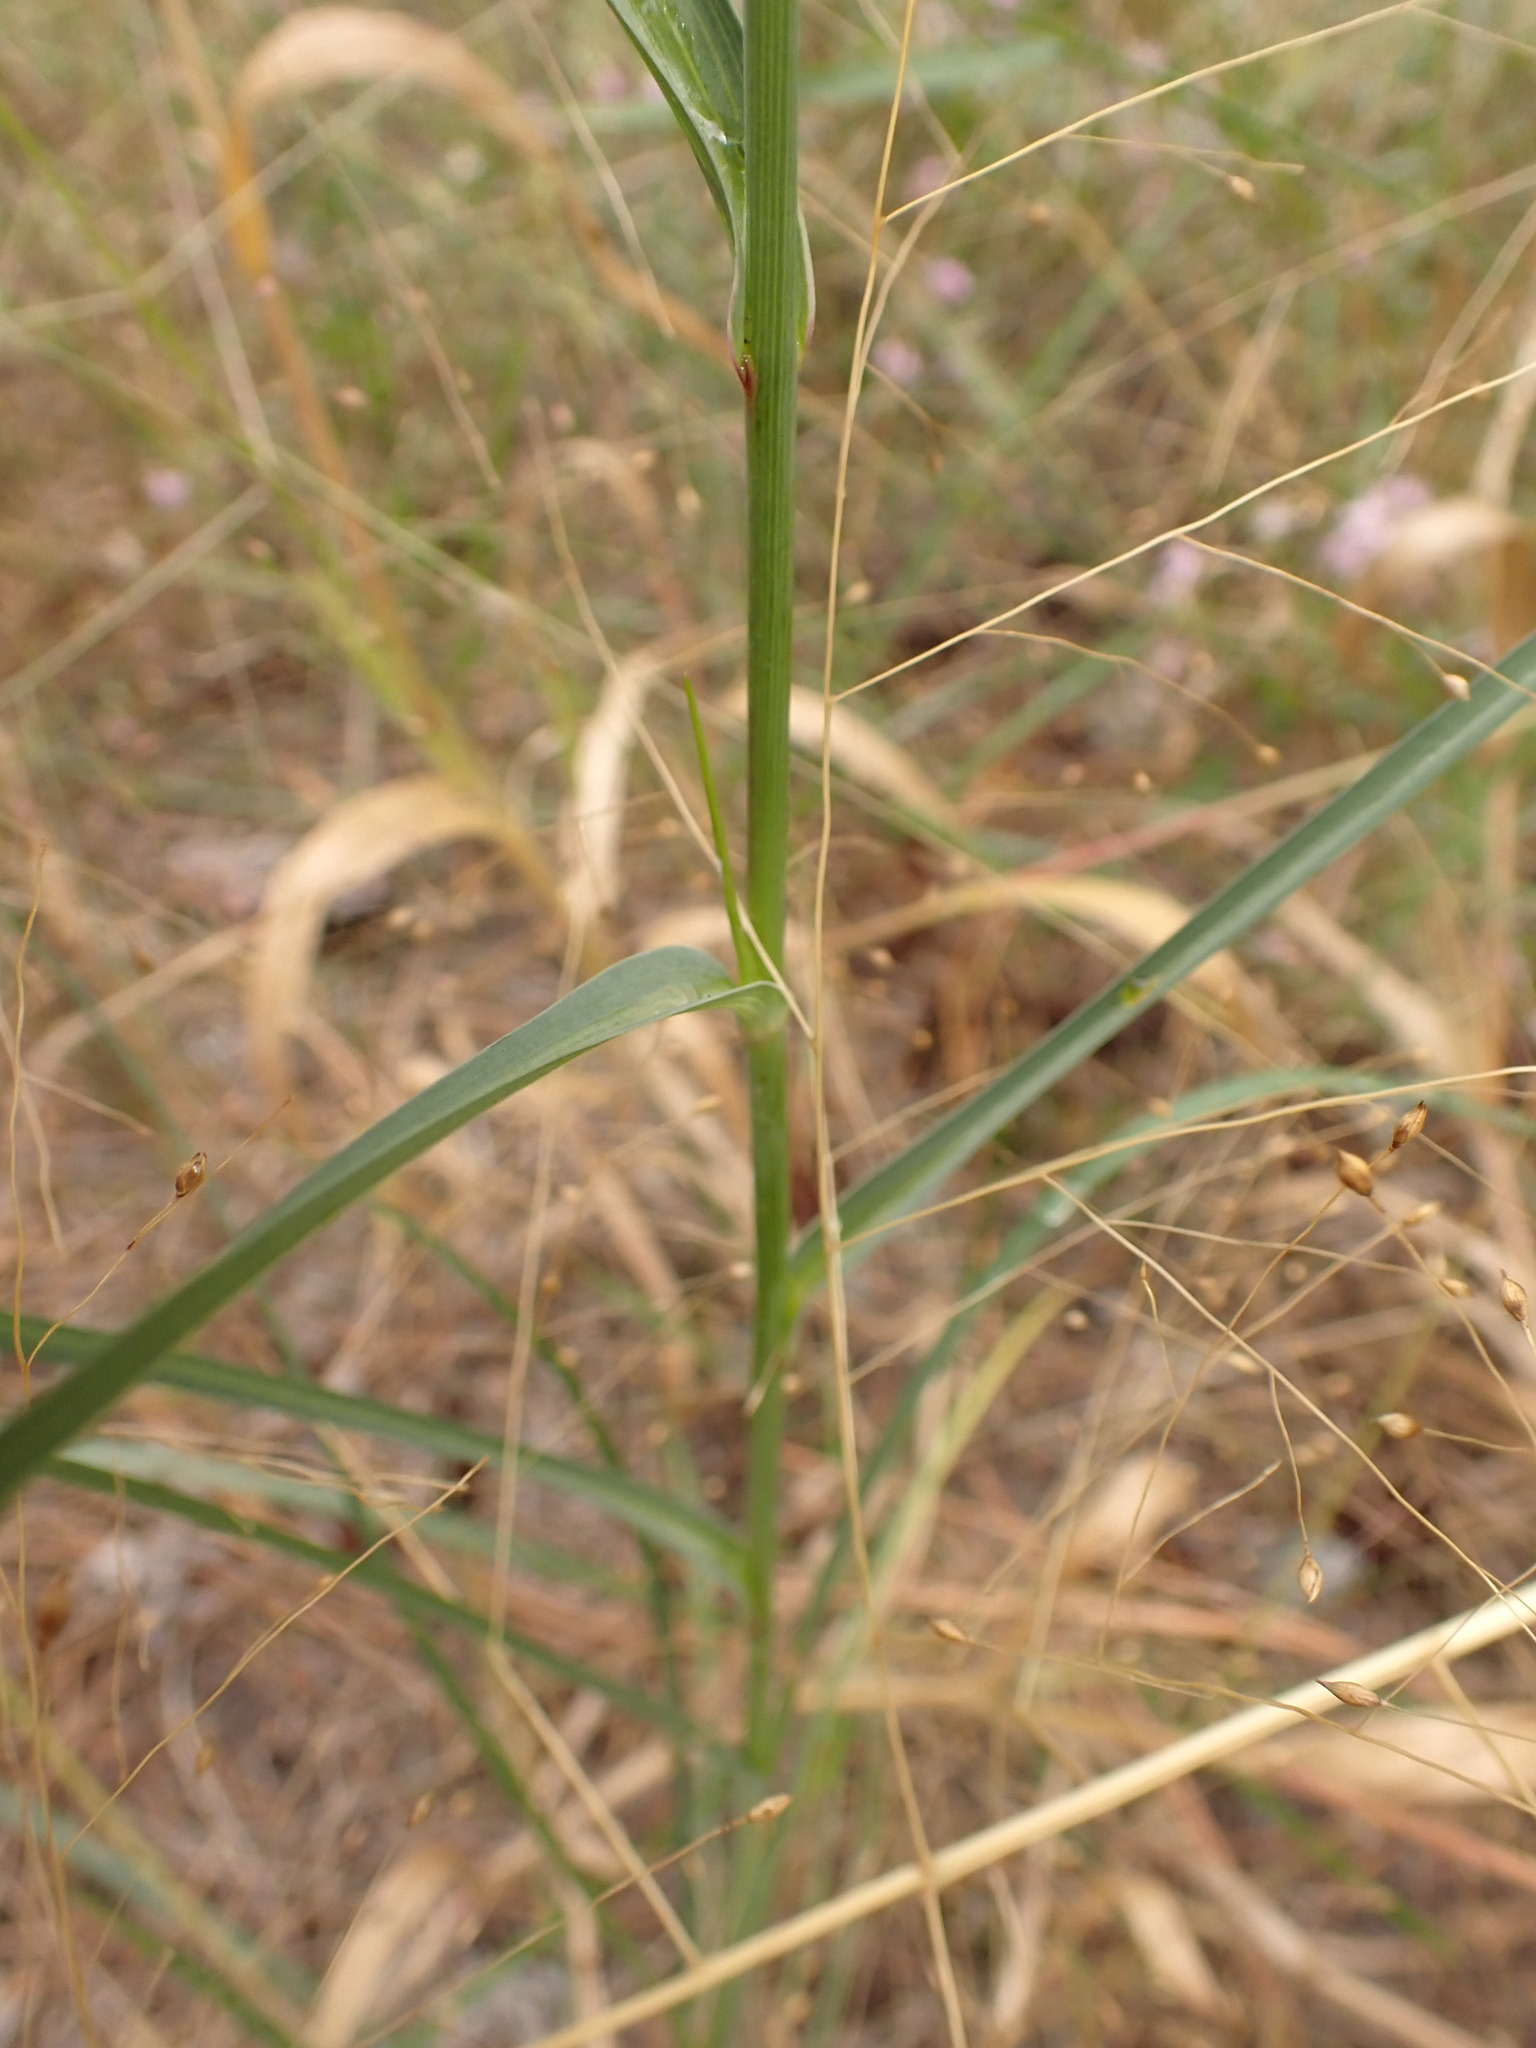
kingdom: Plantae
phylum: Tracheophyta
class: Magnoliopsida
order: Asterales
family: Asteraceae
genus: Tragopogon
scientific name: Tragopogon dubius
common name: Yellow salsify
